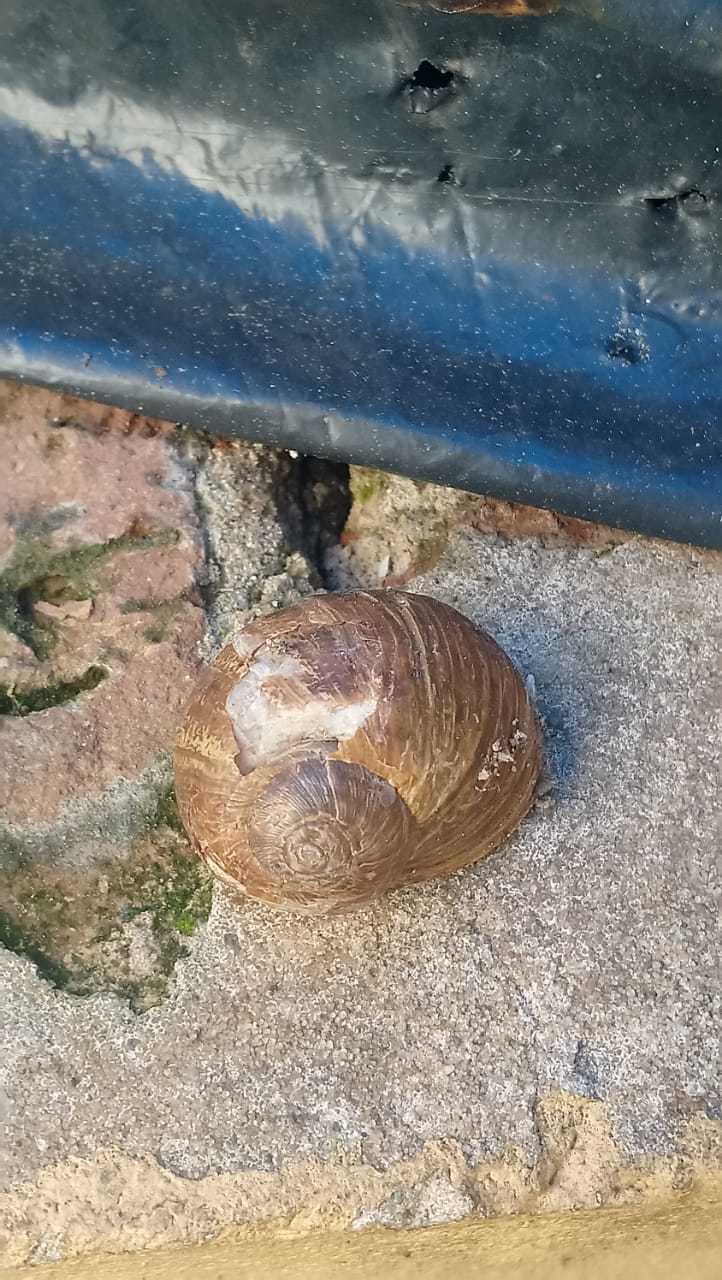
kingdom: Animalia
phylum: Mollusca
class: Gastropoda
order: Stylommatophora
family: Helicidae
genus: Cornu
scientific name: Cornu aspersum
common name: Brown garden snail
